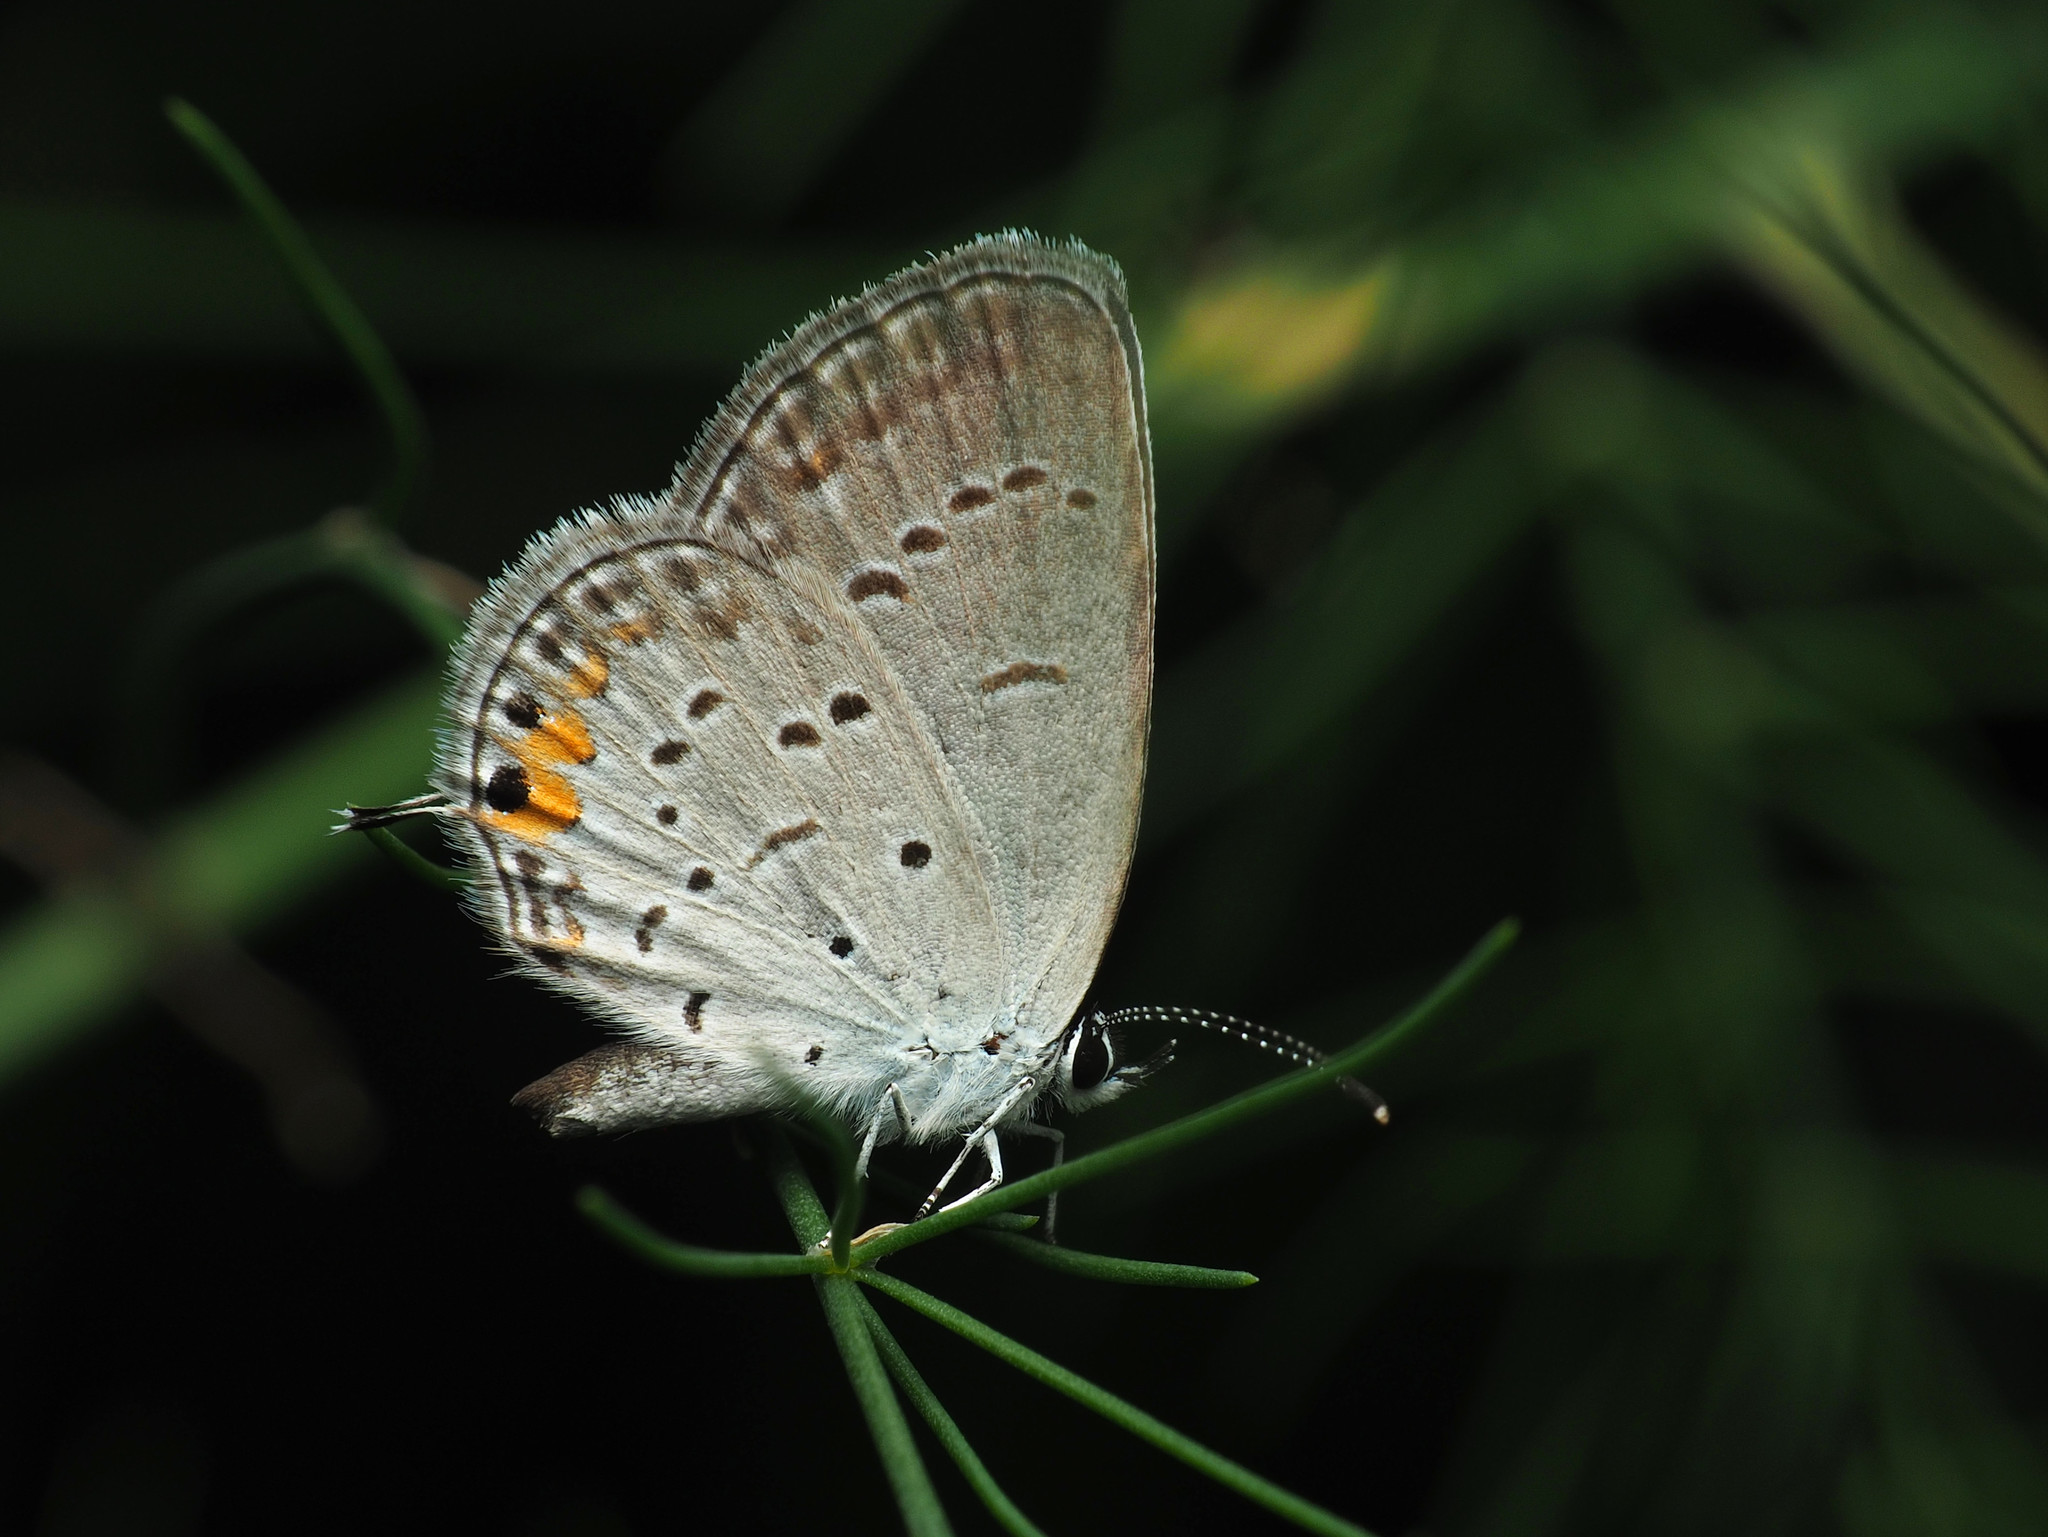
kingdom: Animalia
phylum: Arthropoda
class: Insecta
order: Lepidoptera
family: Lycaenidae
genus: Elkalyce
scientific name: Elkalyce comyntas
